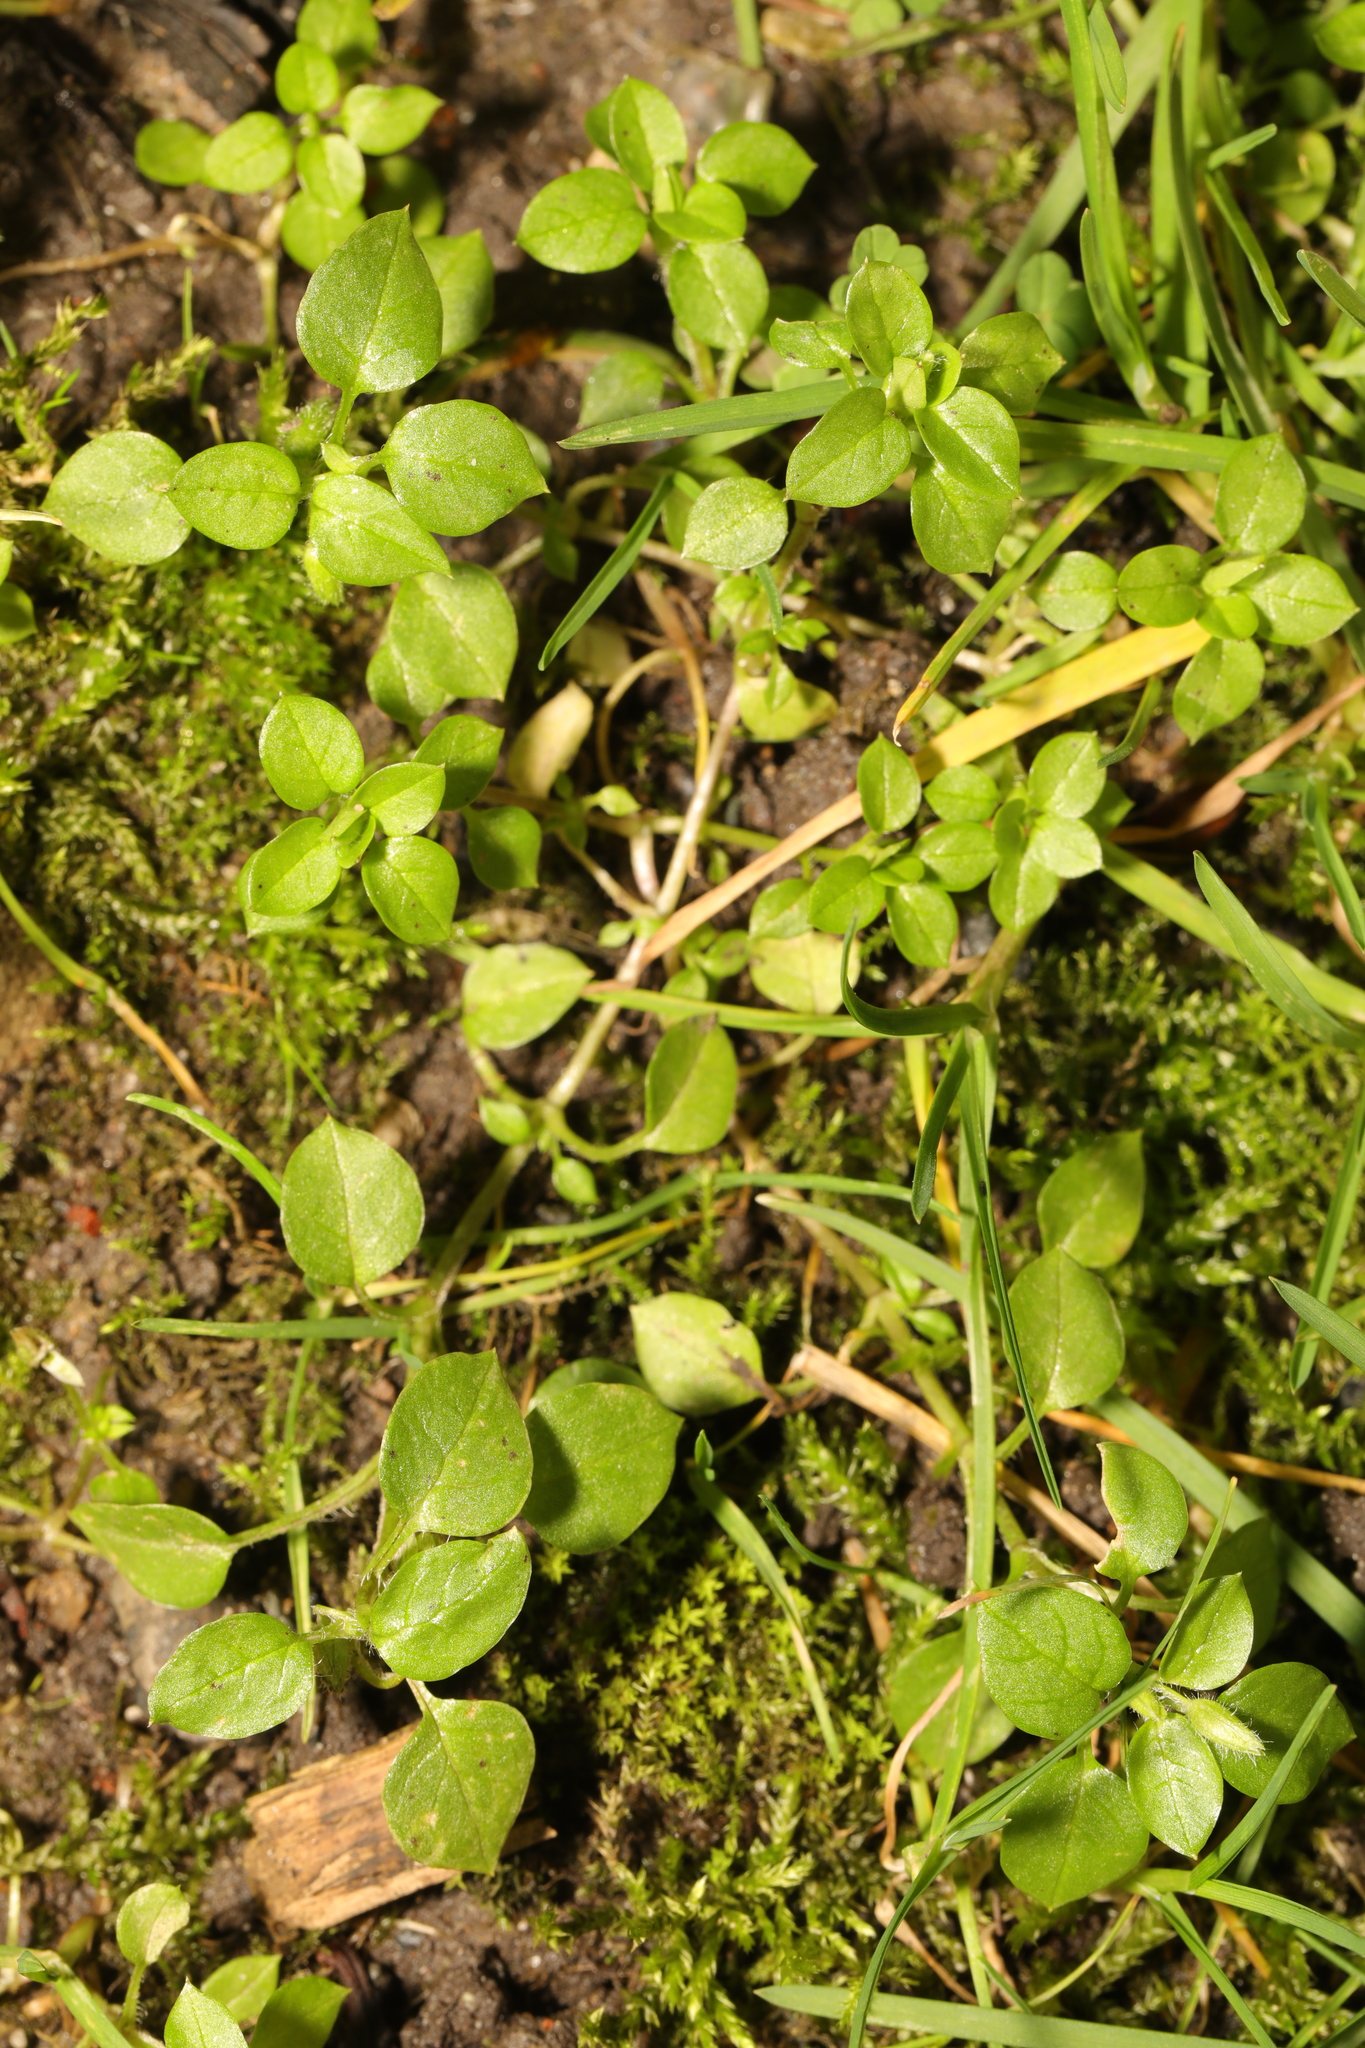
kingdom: Plantae
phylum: Tracheophyta
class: Magnoliopsida
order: Caryophyllales
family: Caryophyllaceae
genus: Stellaria
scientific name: Stellaria media
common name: Common chickweed
